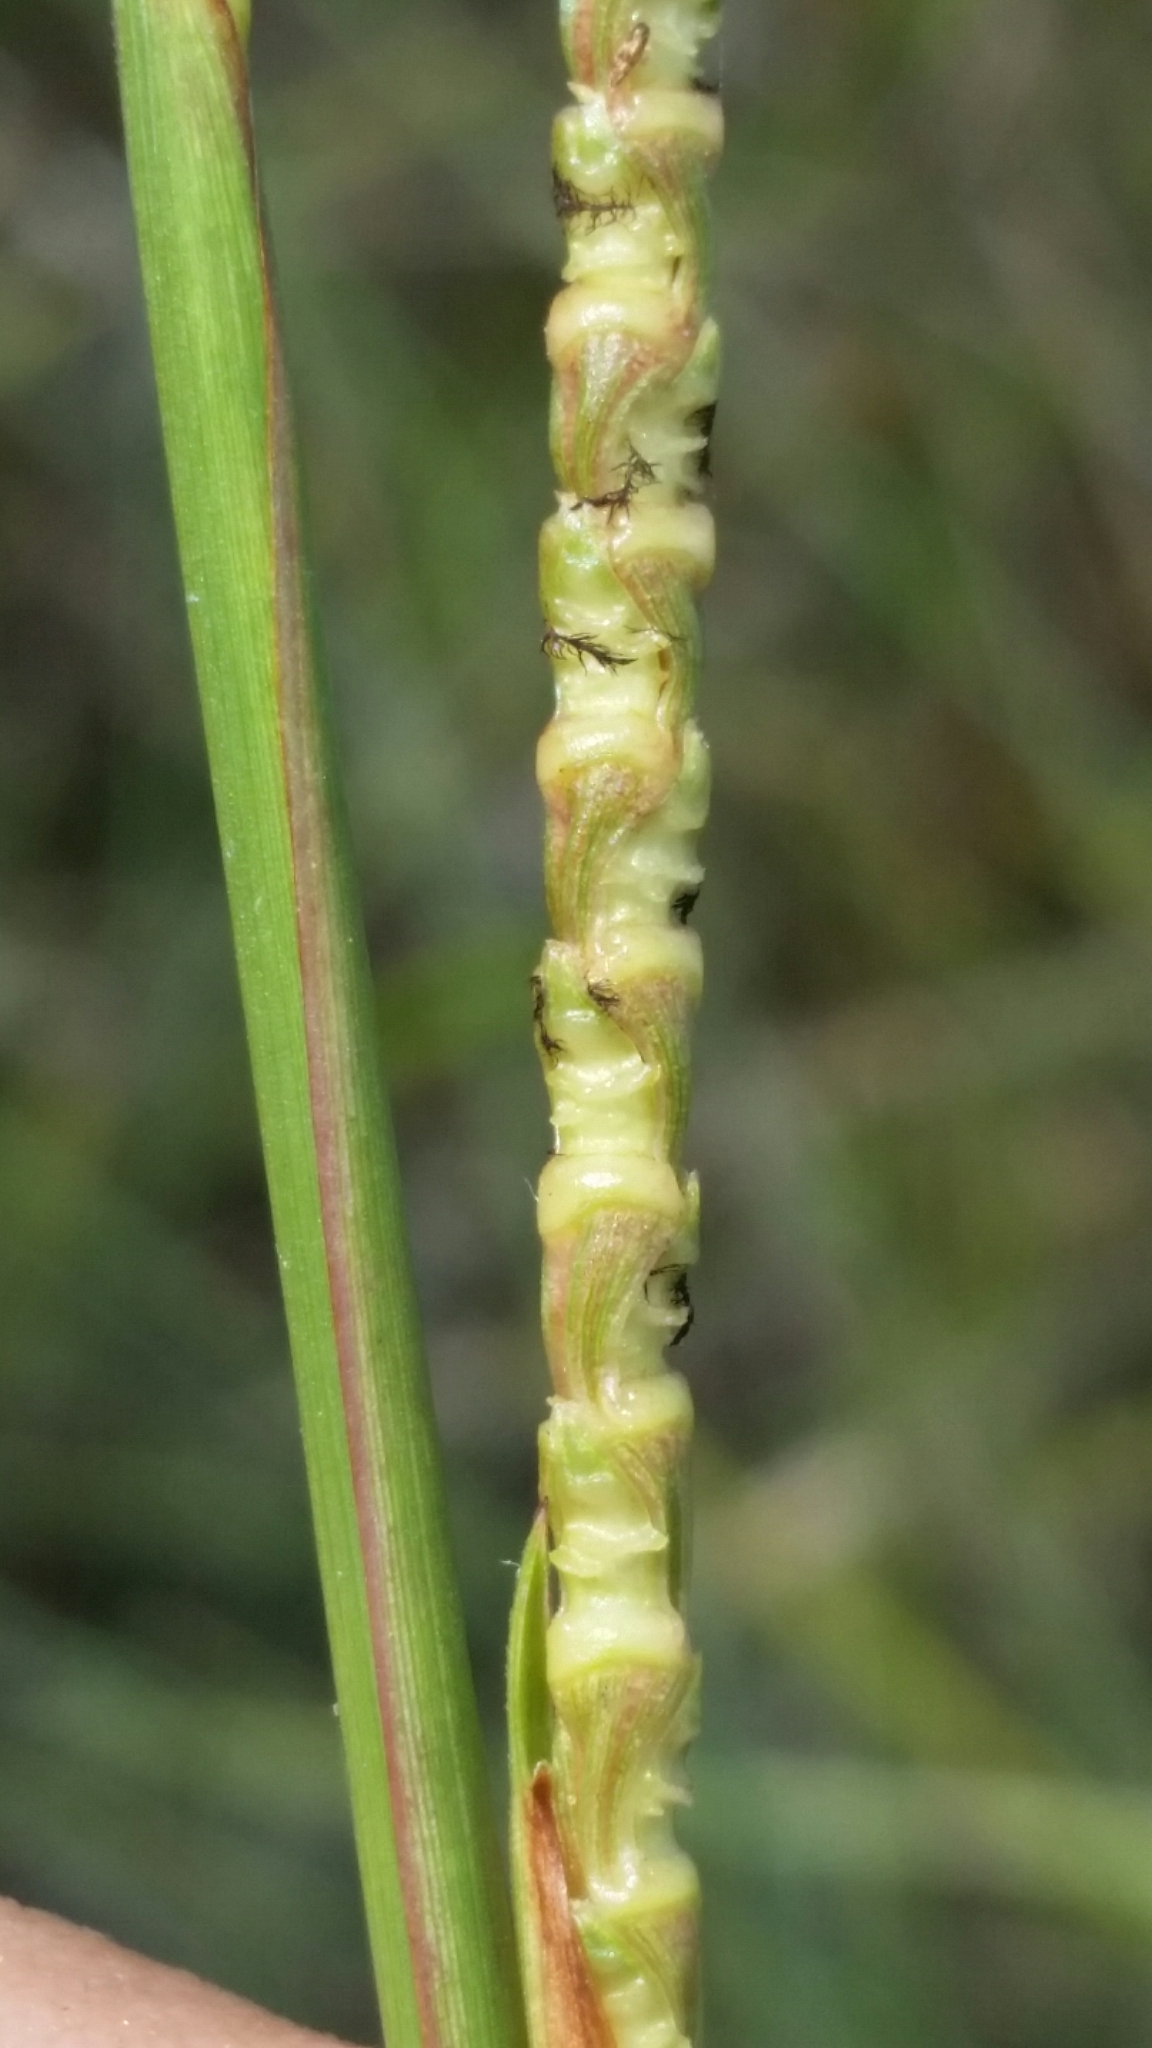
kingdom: Plantae
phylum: Tracheophyta
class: Liliopsida
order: Poales
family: Poaceae
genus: Rottboellia
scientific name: Rottboellia rugosa
